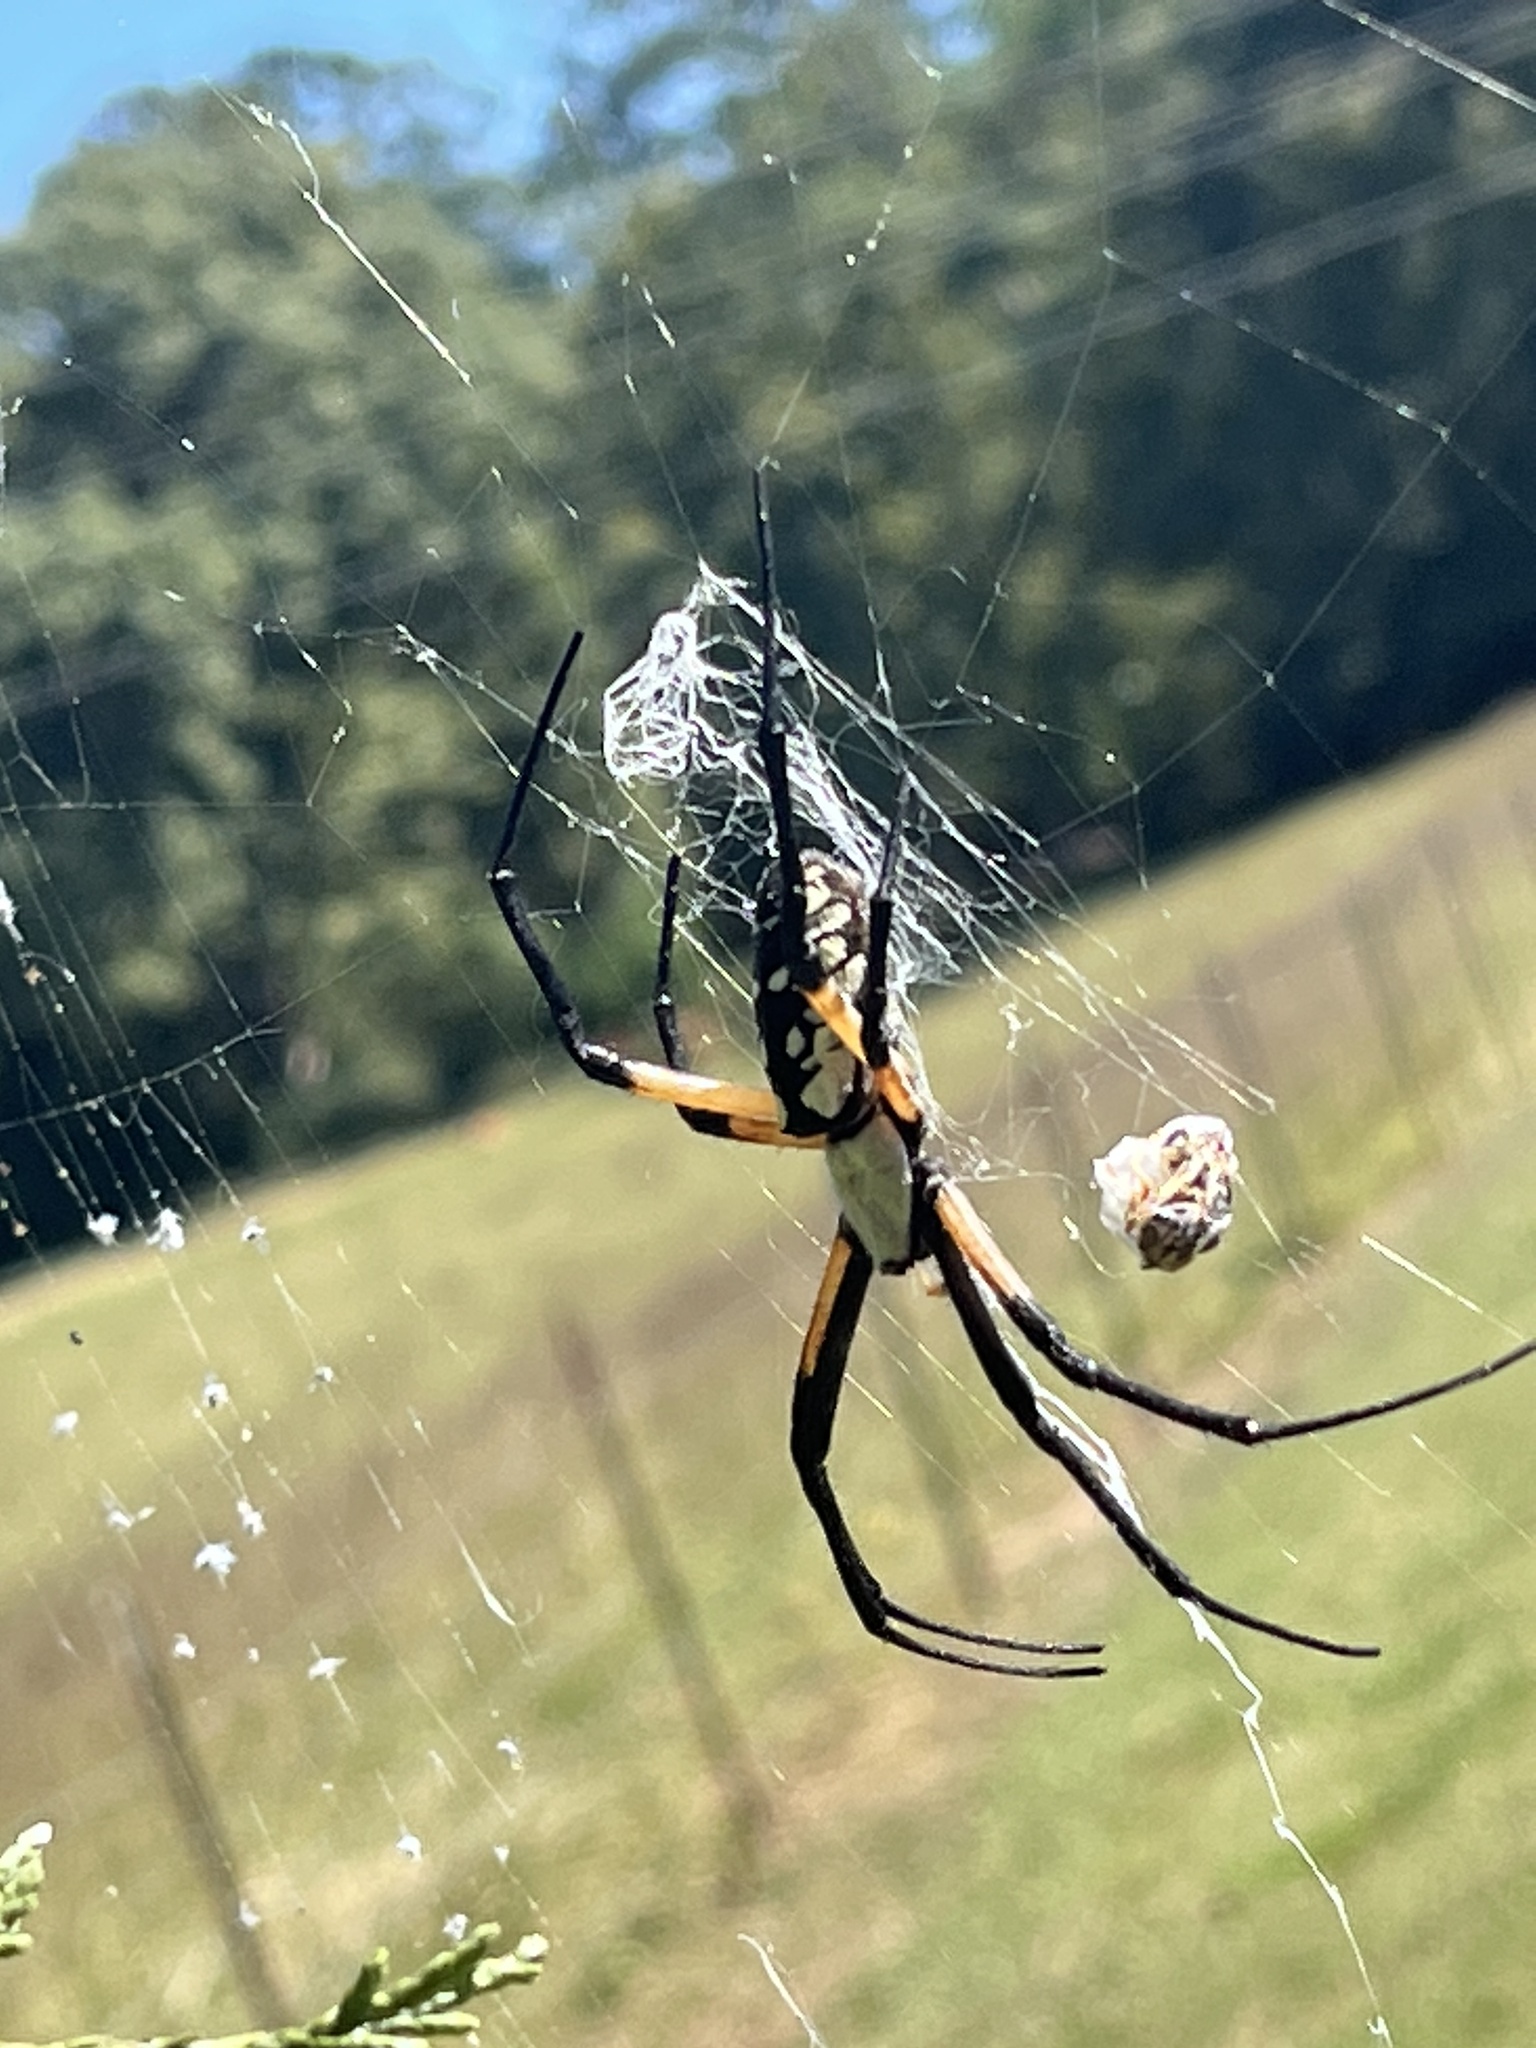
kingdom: Animalia
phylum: Arthropoda
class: Arachnida
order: Araneae
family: Araneidae
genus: Argiope
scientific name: Argiope aurantia
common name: Orb weavers
